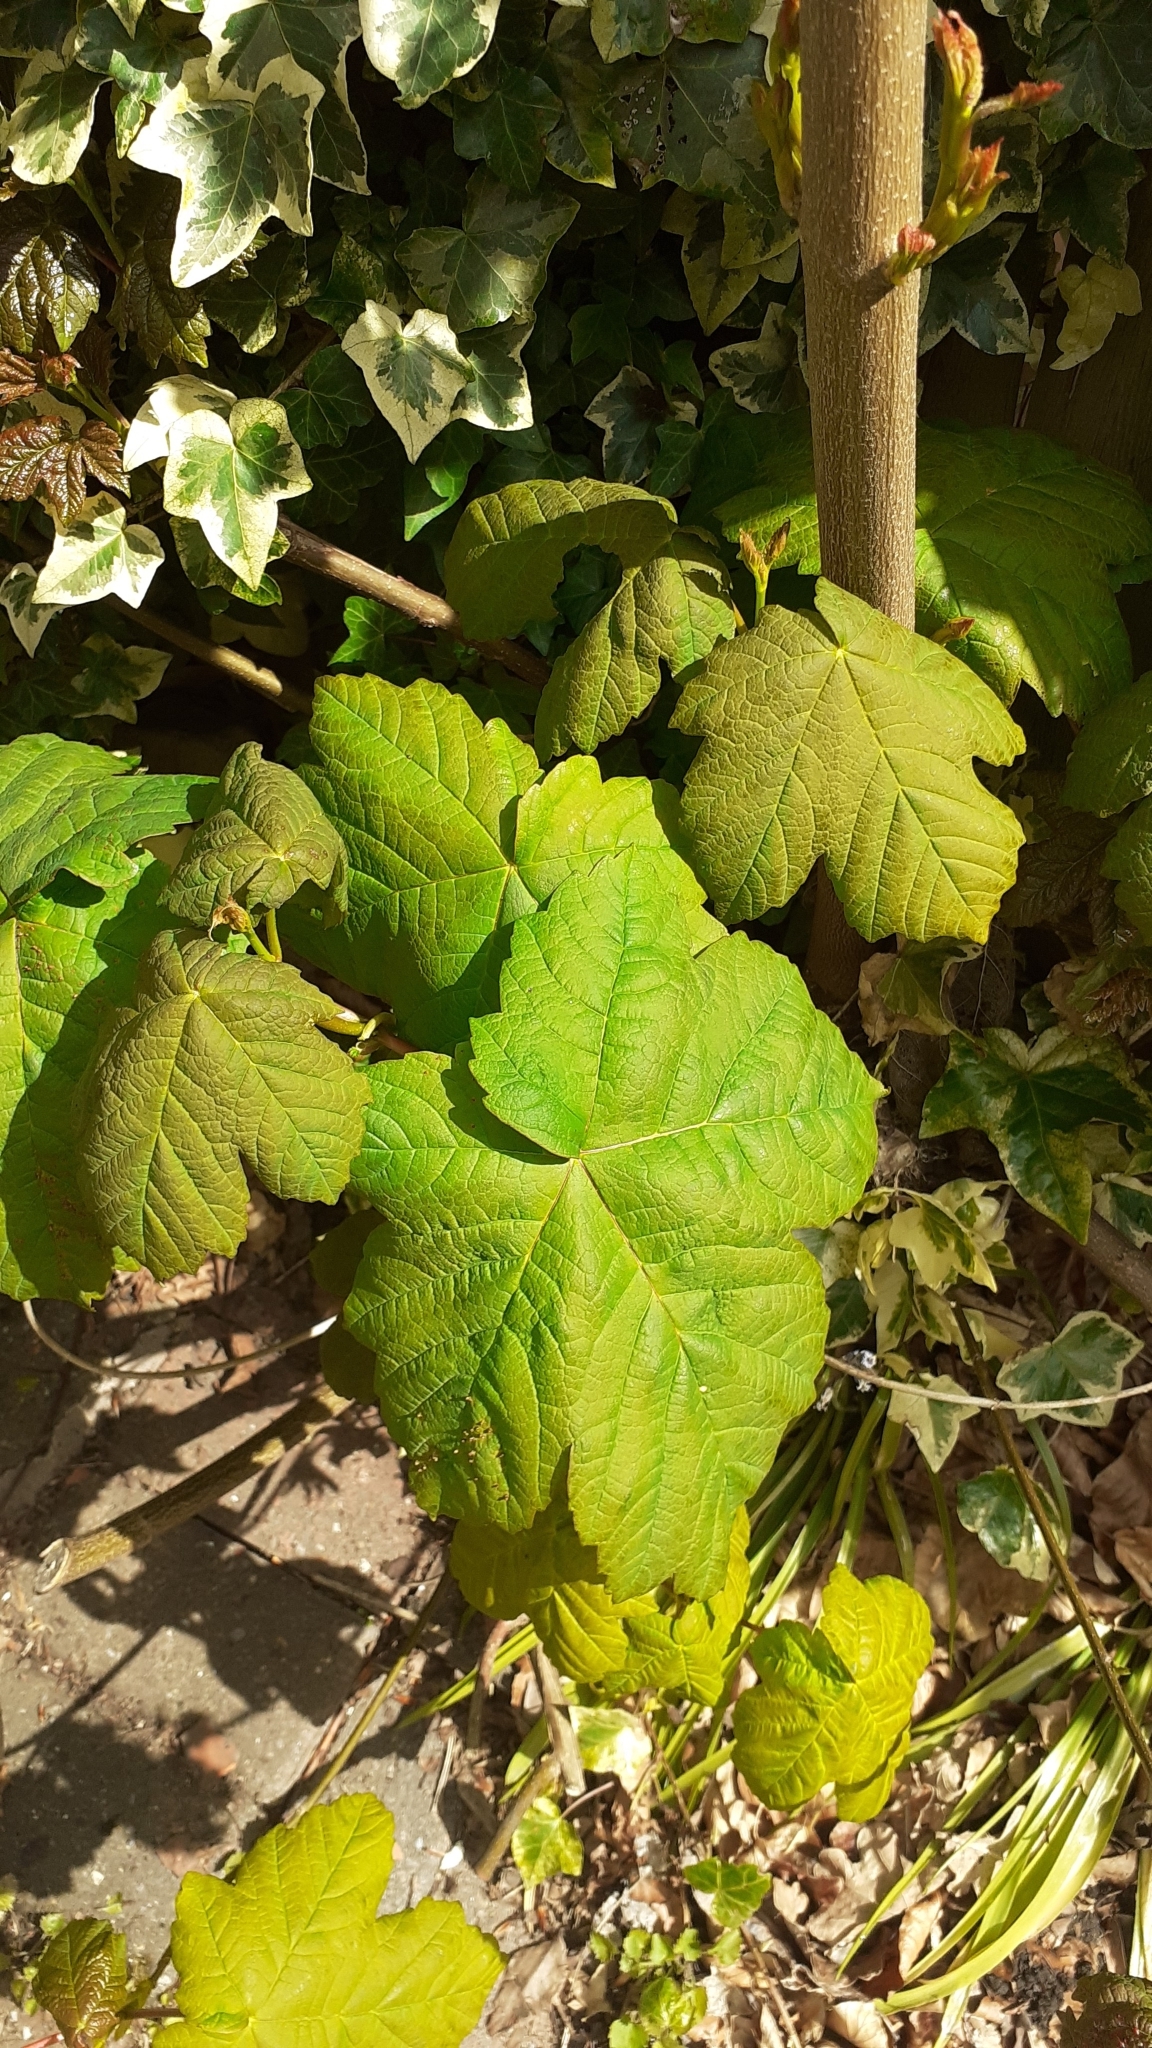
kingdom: Plantae
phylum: Tracheophyta
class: Magnoliopsida
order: Sapindales
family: Sapindaceae
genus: Acer
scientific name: Acer pseudoplatanus
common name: Sycamore
